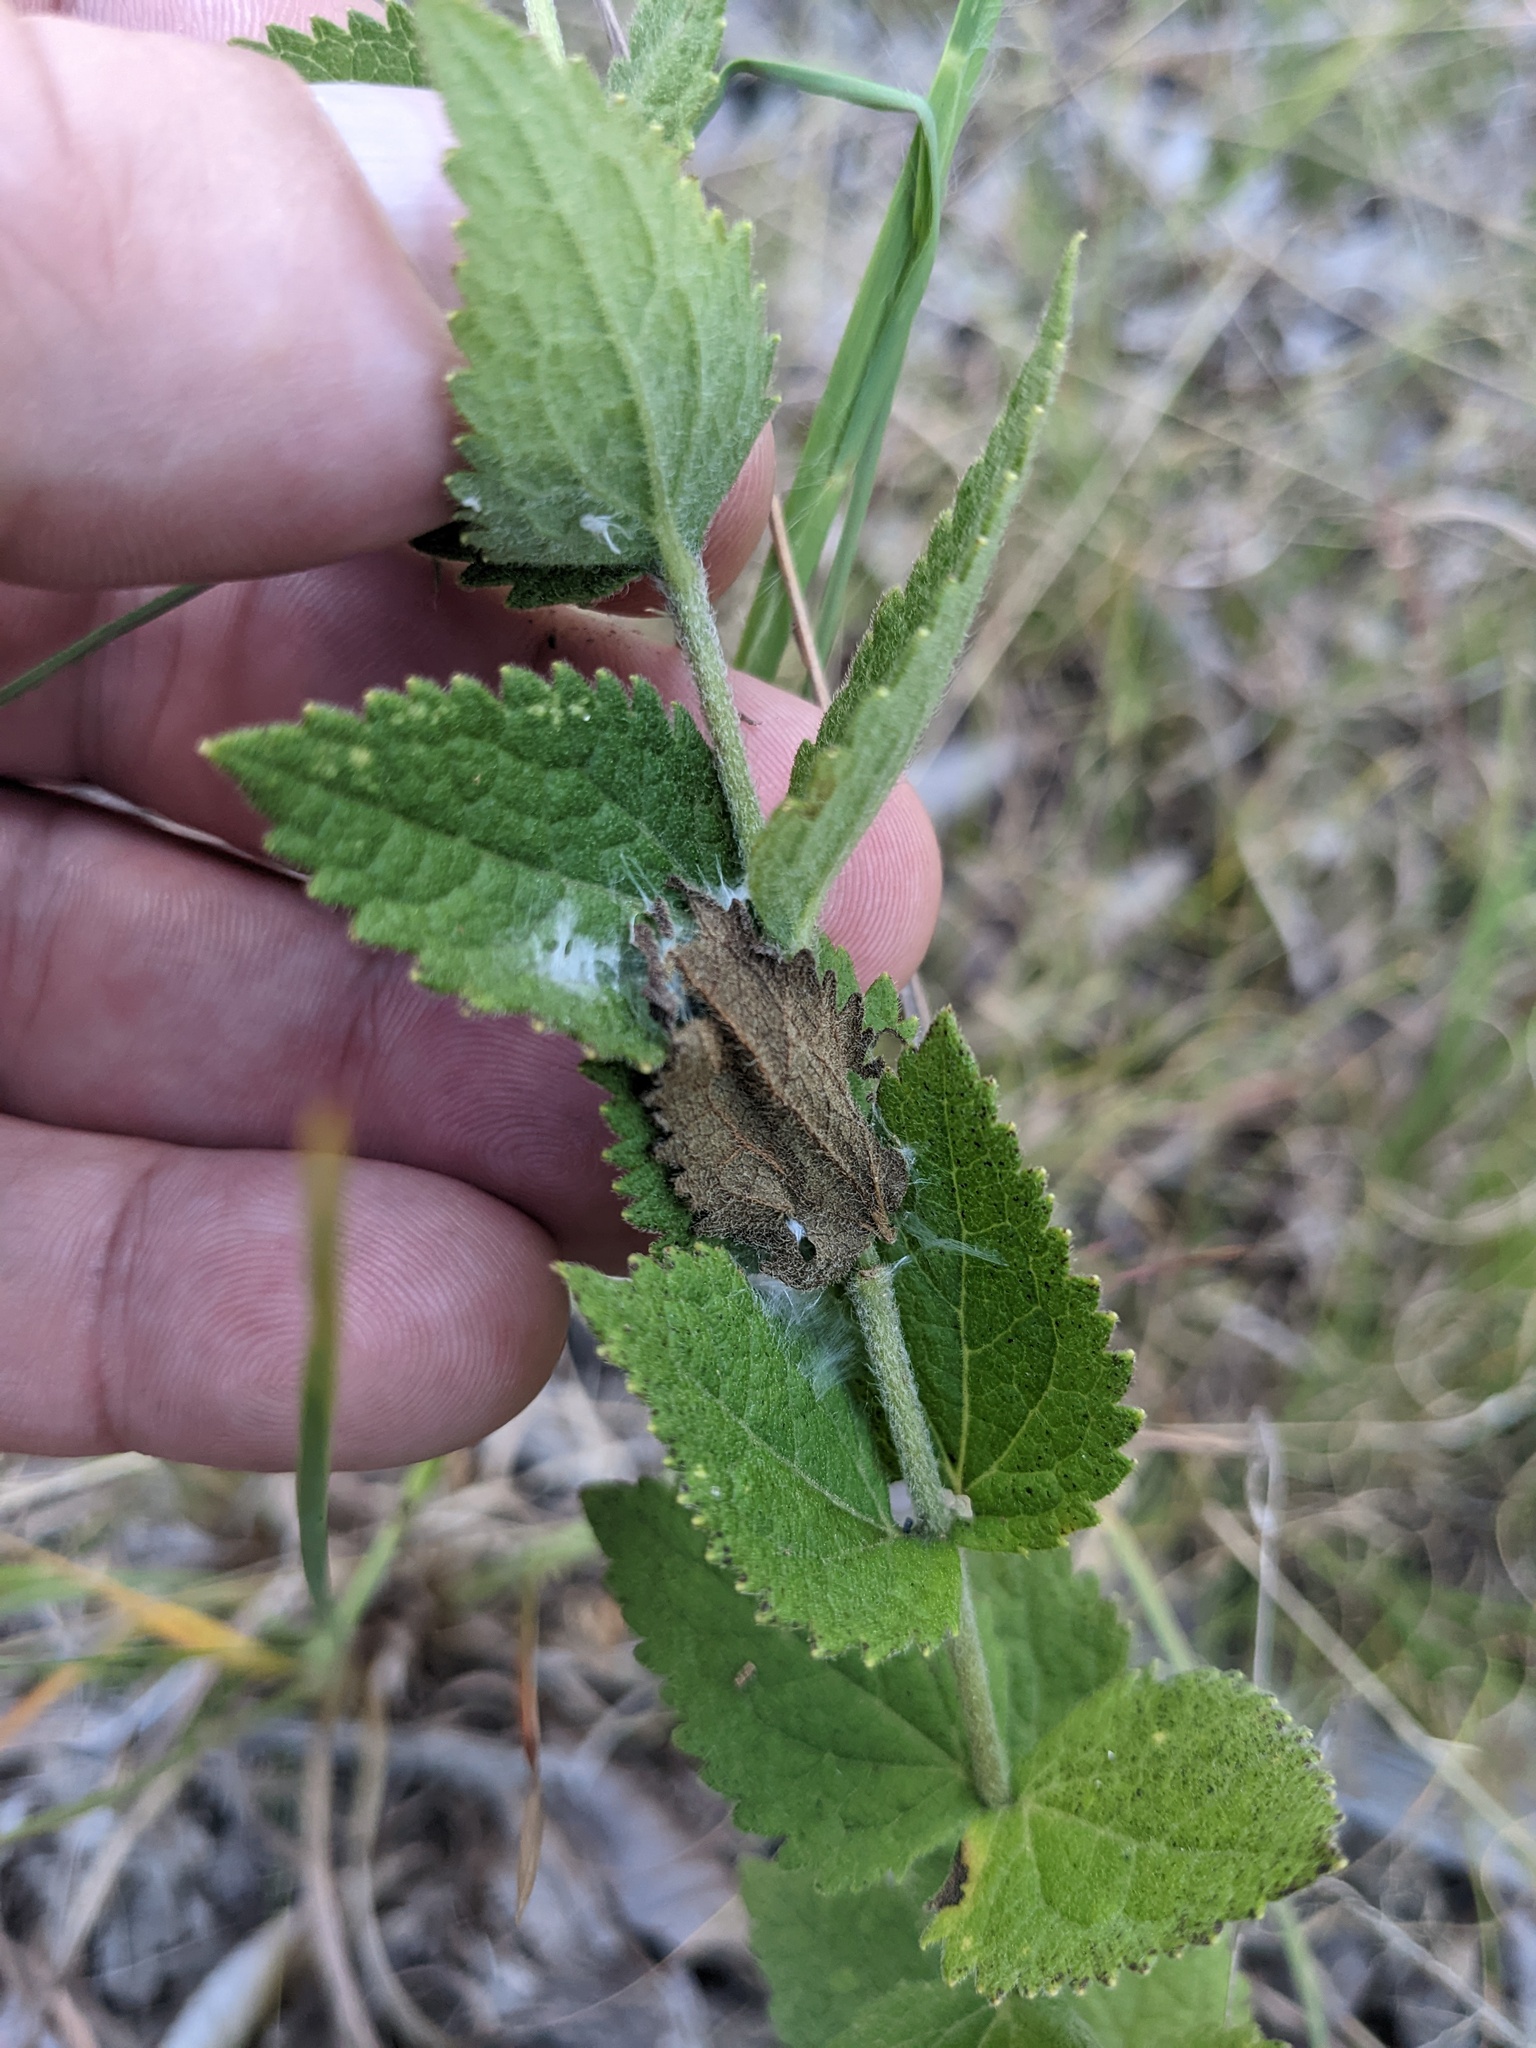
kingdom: Plantae
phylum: Tracheophyta
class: Magnoliopsida
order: Asterales
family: Asteraceae
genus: Eupatorium
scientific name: Eupatorium rotundifolium
